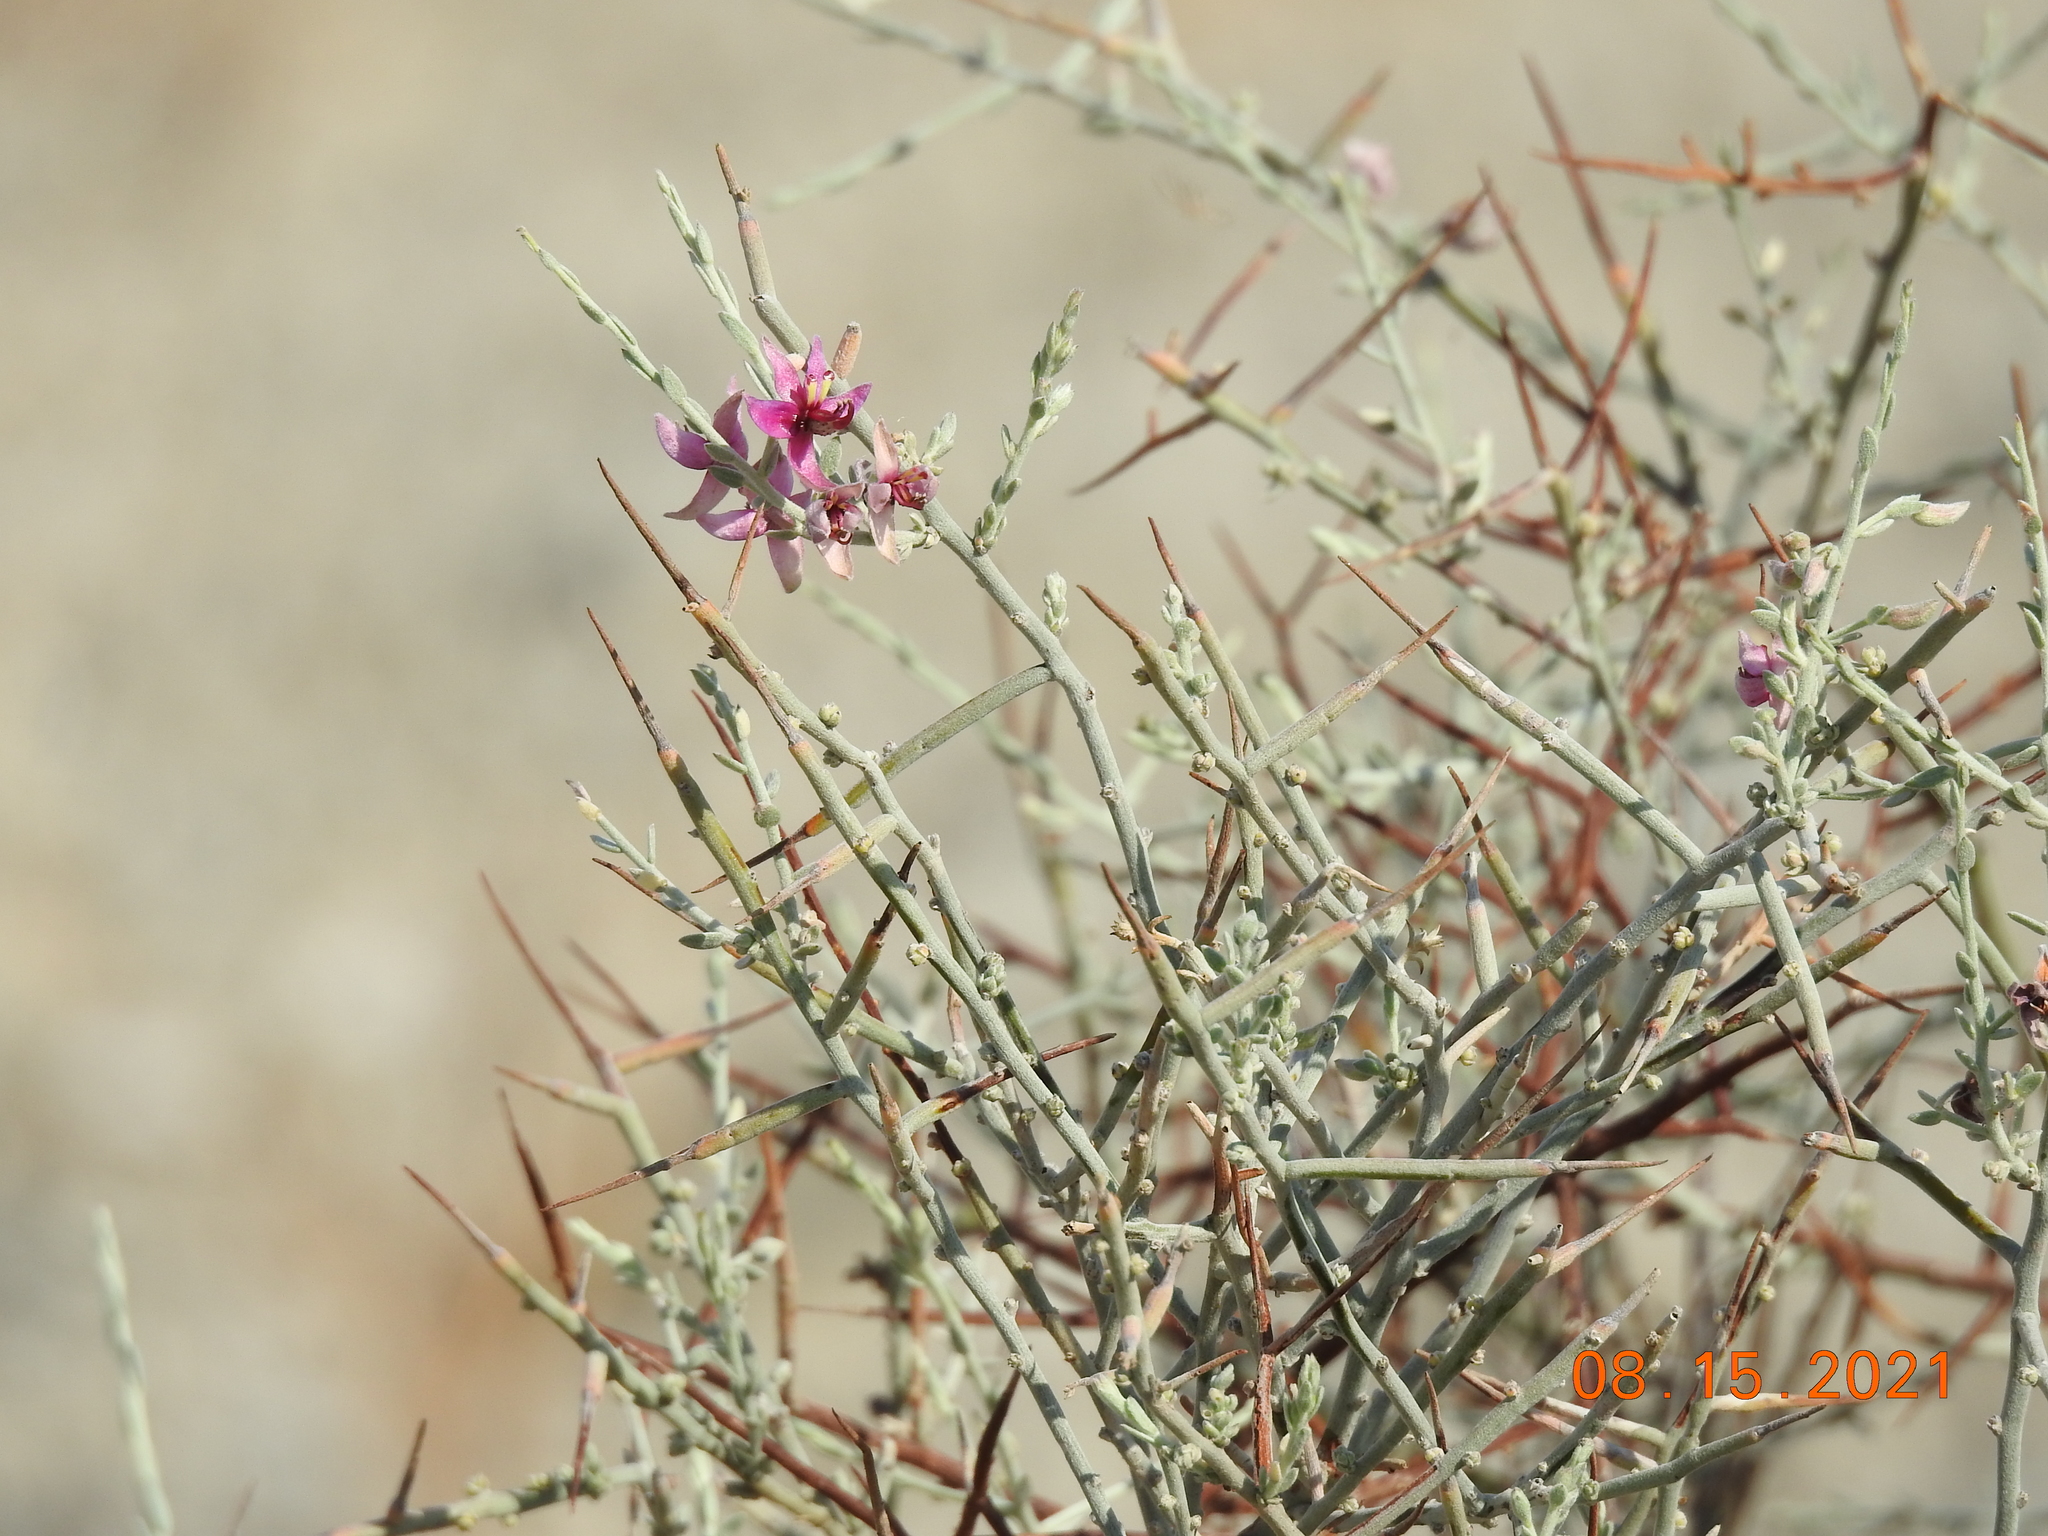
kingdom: Plantae
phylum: Tracheophyta
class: Magnoliopsida
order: Zygophyllales
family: Krameriaceae
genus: Krameria
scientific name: Krameria bicolor
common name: White ratany
